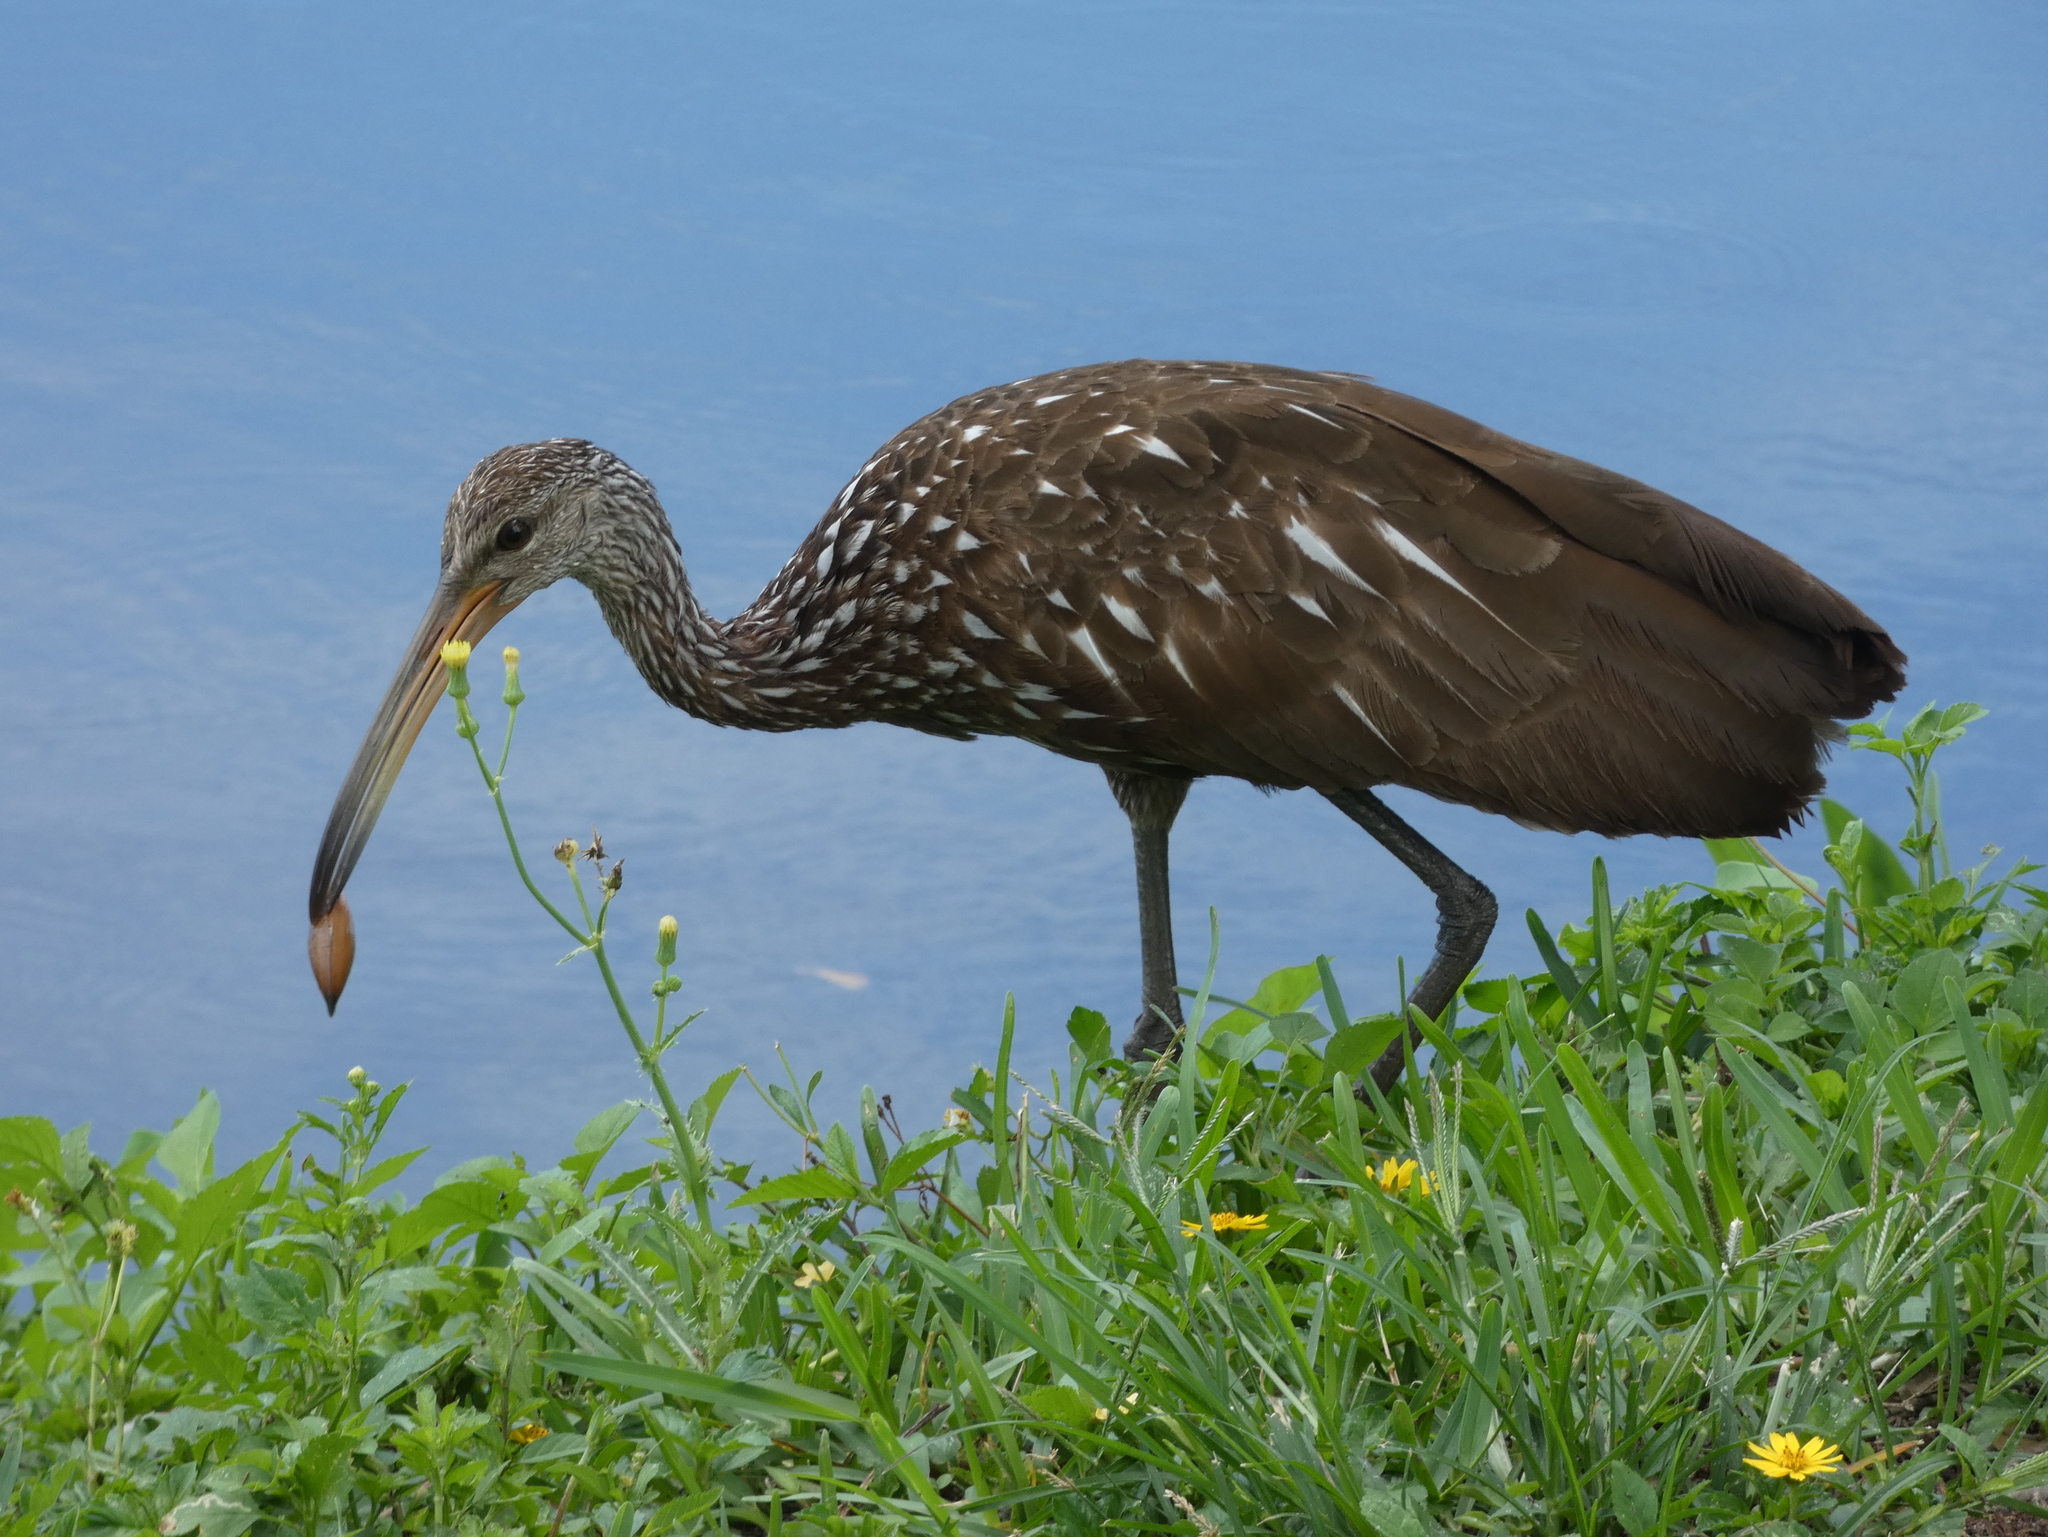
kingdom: Animalia
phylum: Chordata
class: Aves
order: Gruiformes
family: Aramidae
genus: Aramus
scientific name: Aramus guarauna
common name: Limpkin
